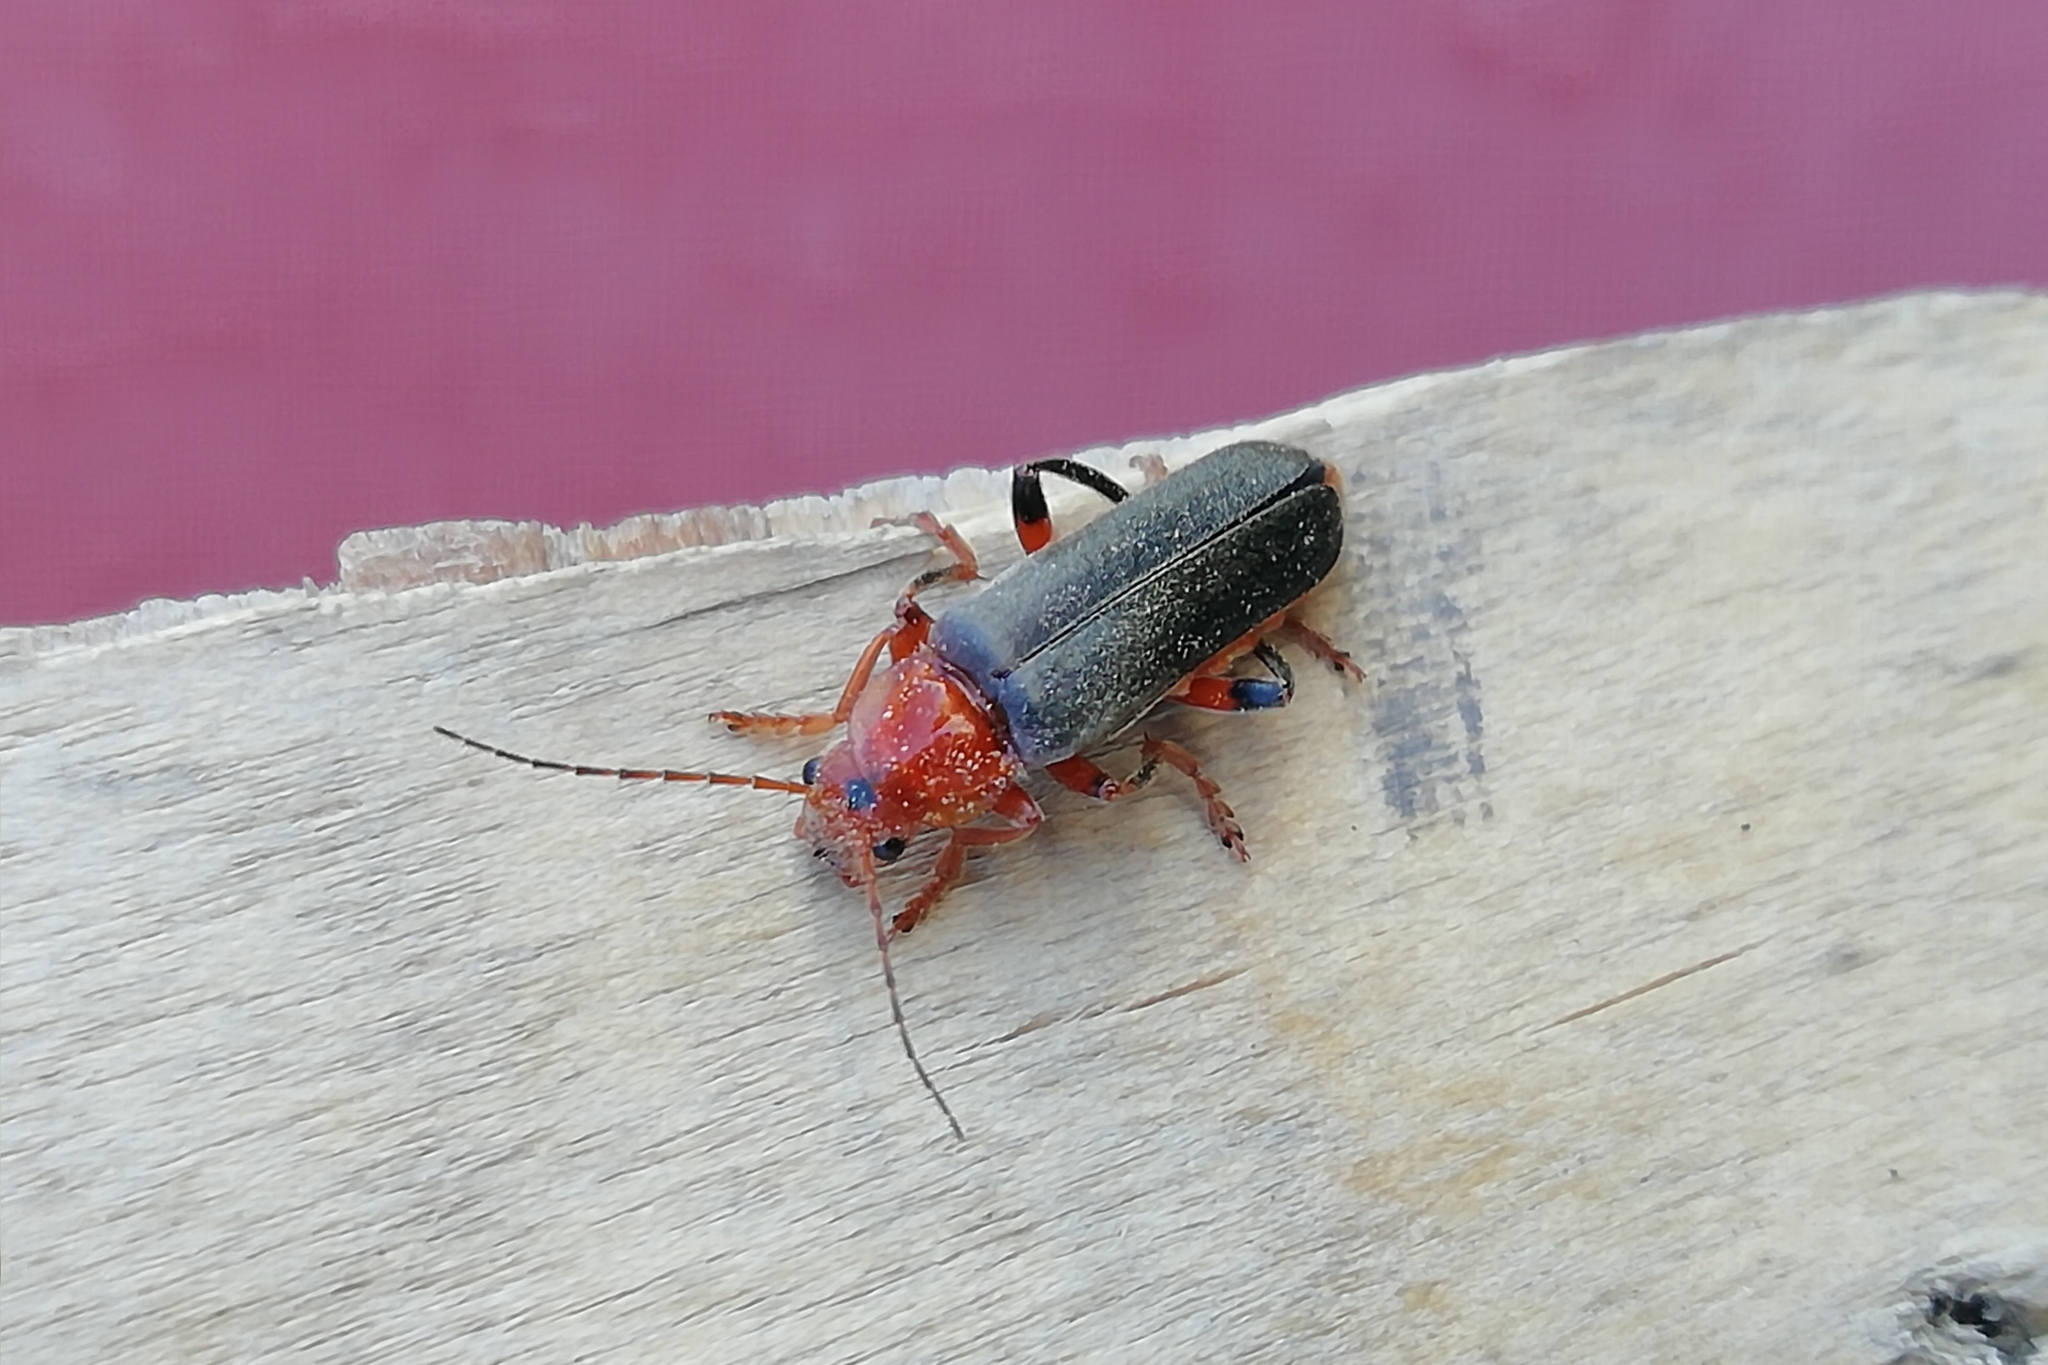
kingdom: Animalia
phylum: Arthropoda
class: Insecta
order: Coleoptera
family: Cantharidae
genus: Cantharis
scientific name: Cantharis livida
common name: Livid soldier beetle
